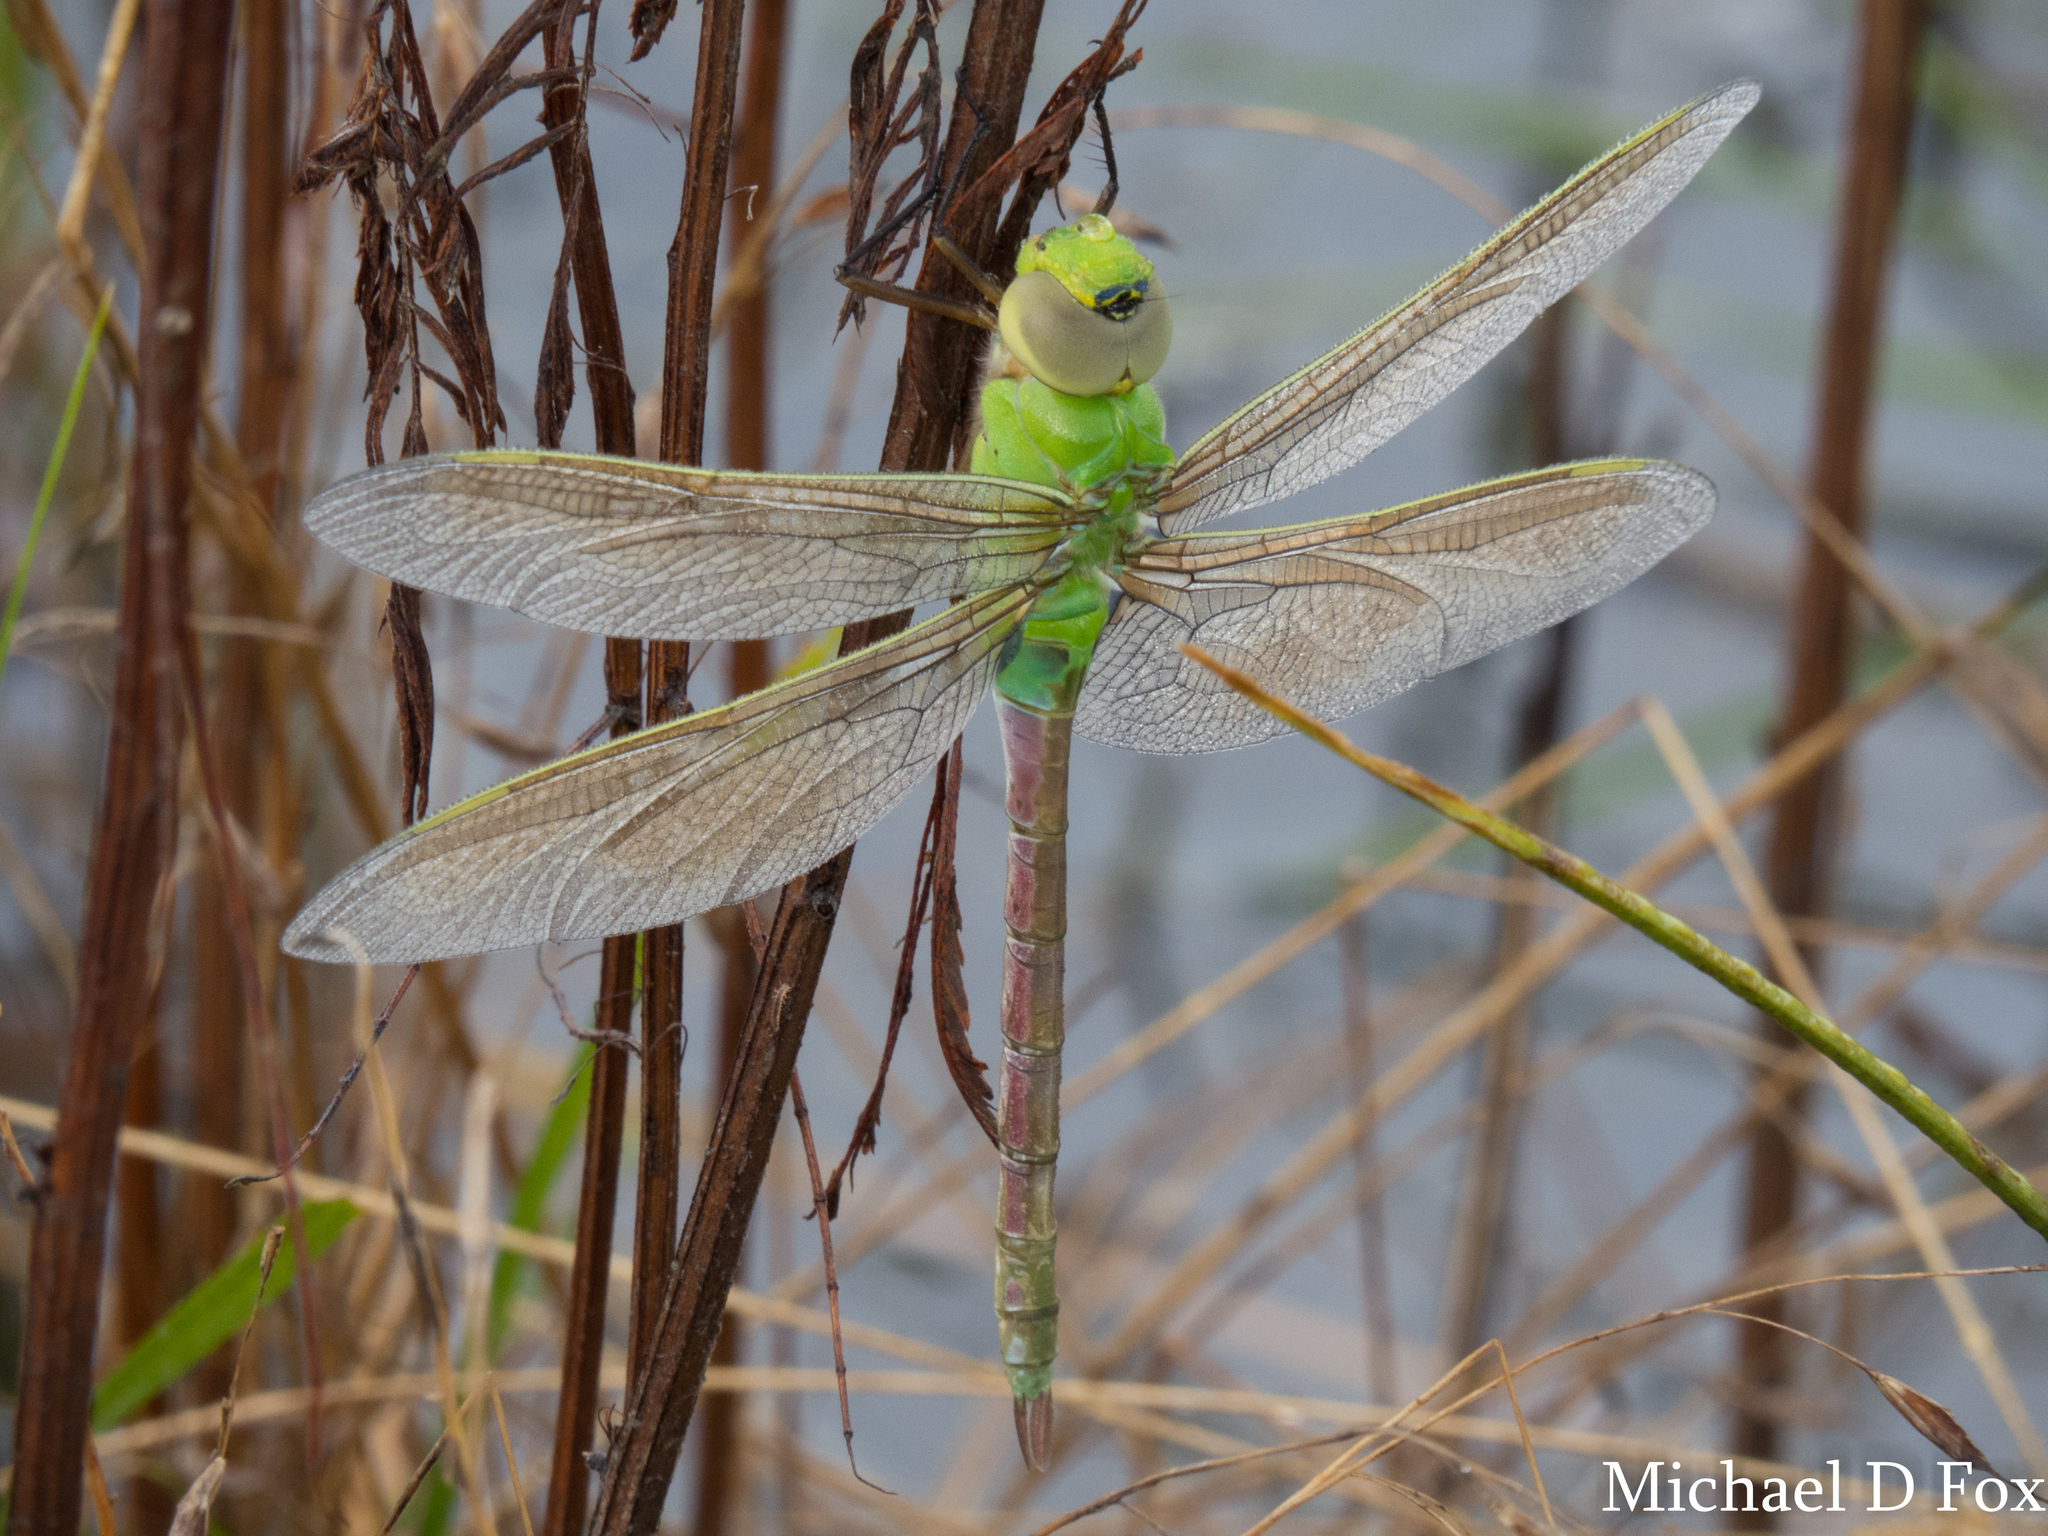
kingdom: Animalia
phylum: Arthropoda
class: Insecta
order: Odonata
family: Aeshnidae
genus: Anax
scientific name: Anax junius
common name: Common green darner
